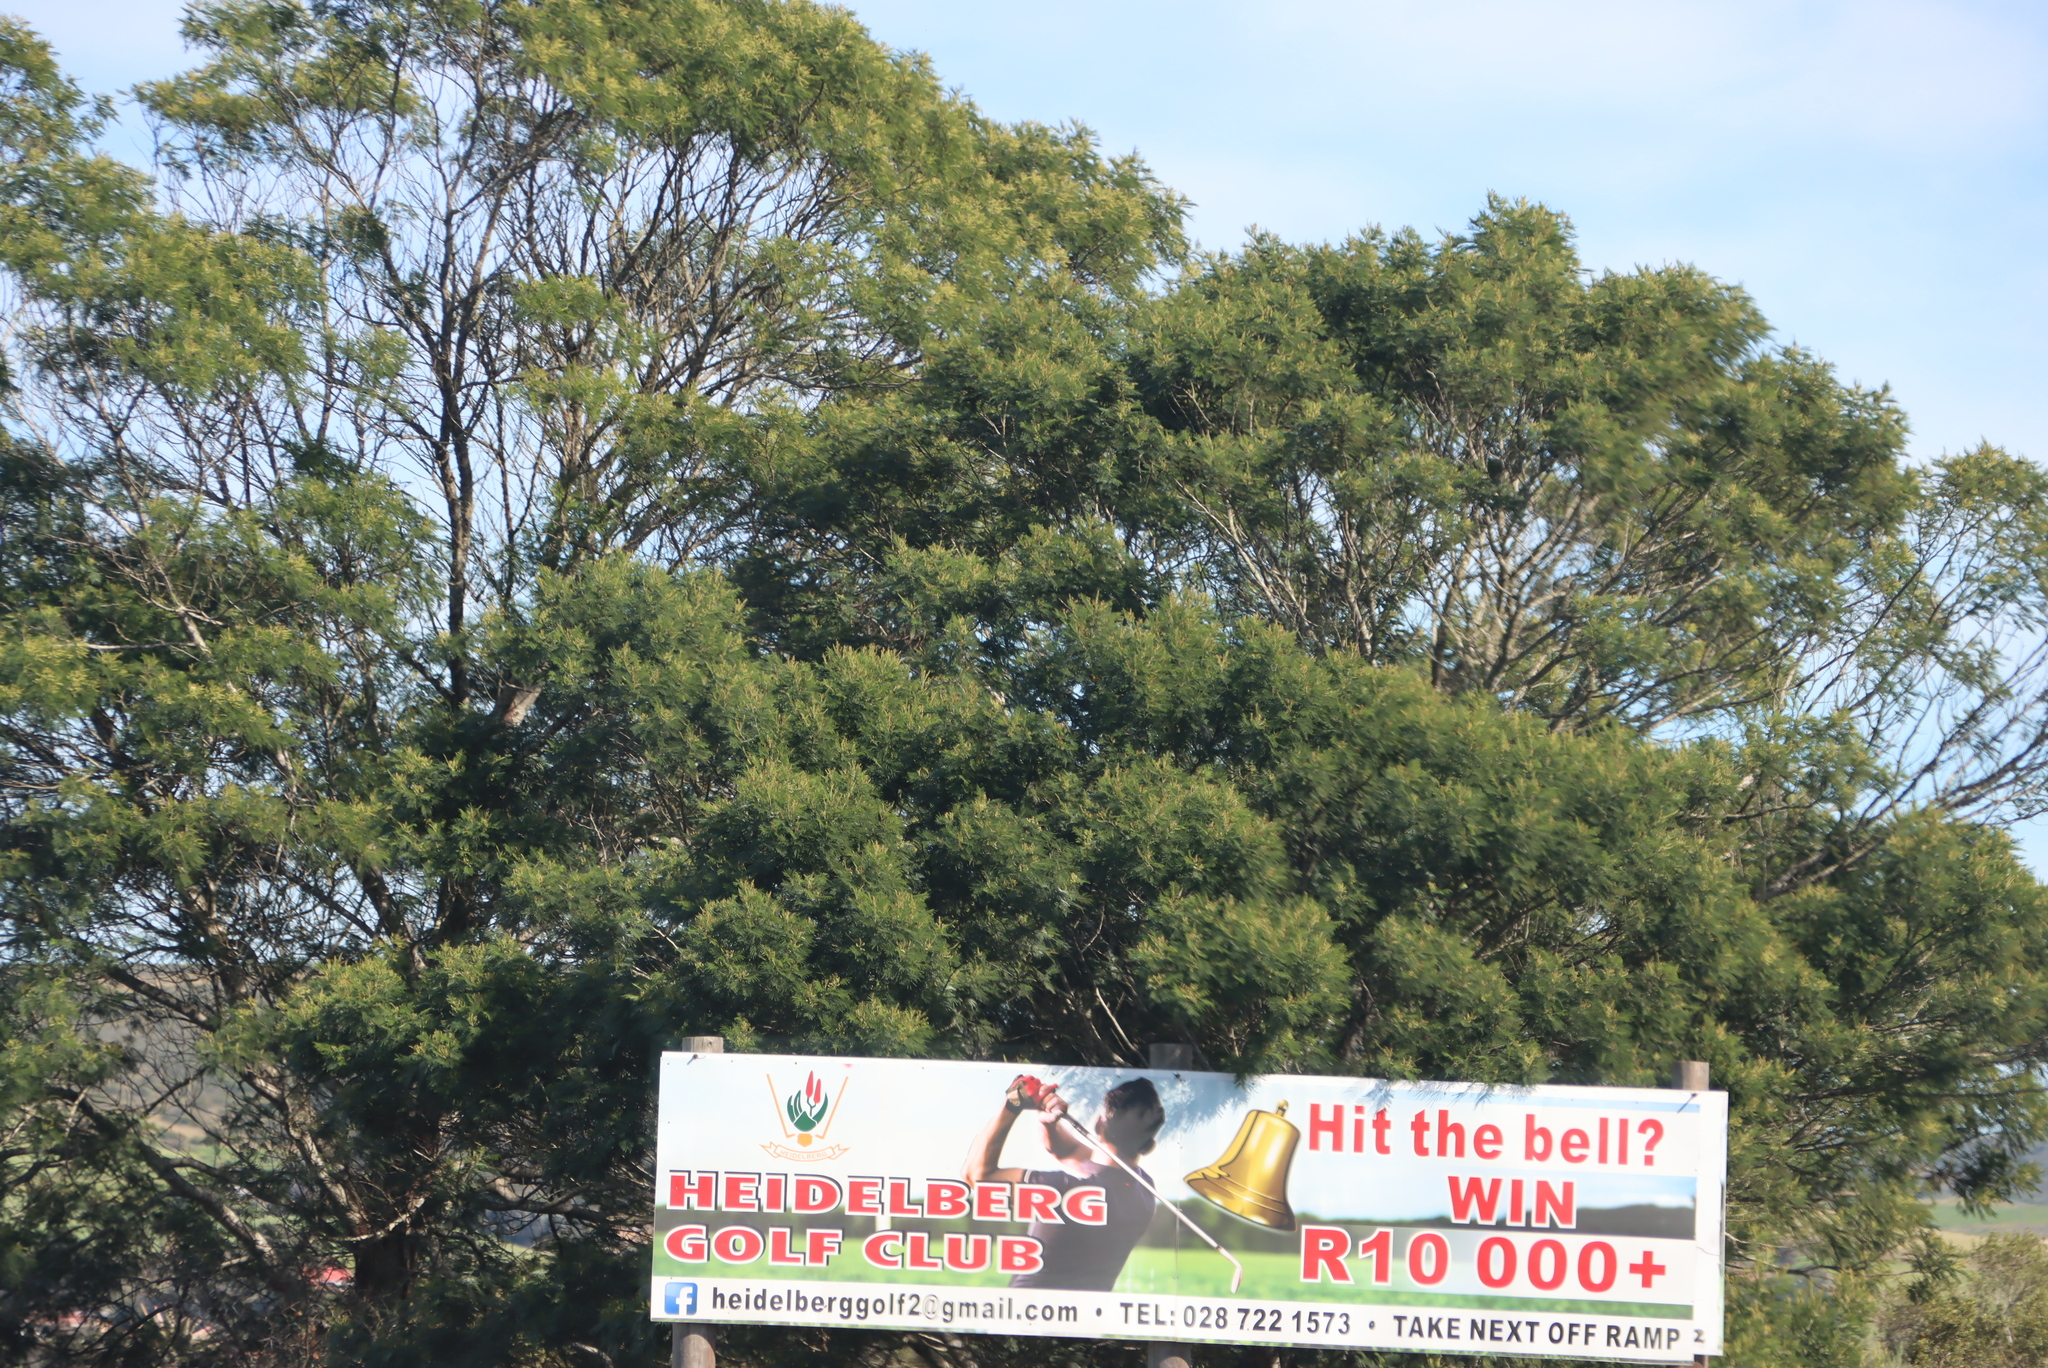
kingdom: Plantae
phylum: Tracheophyta
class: Magnoliopsida
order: Fabales
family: Fabaceae
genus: Acacia
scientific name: Acacia mearnsii
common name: Black wattle
